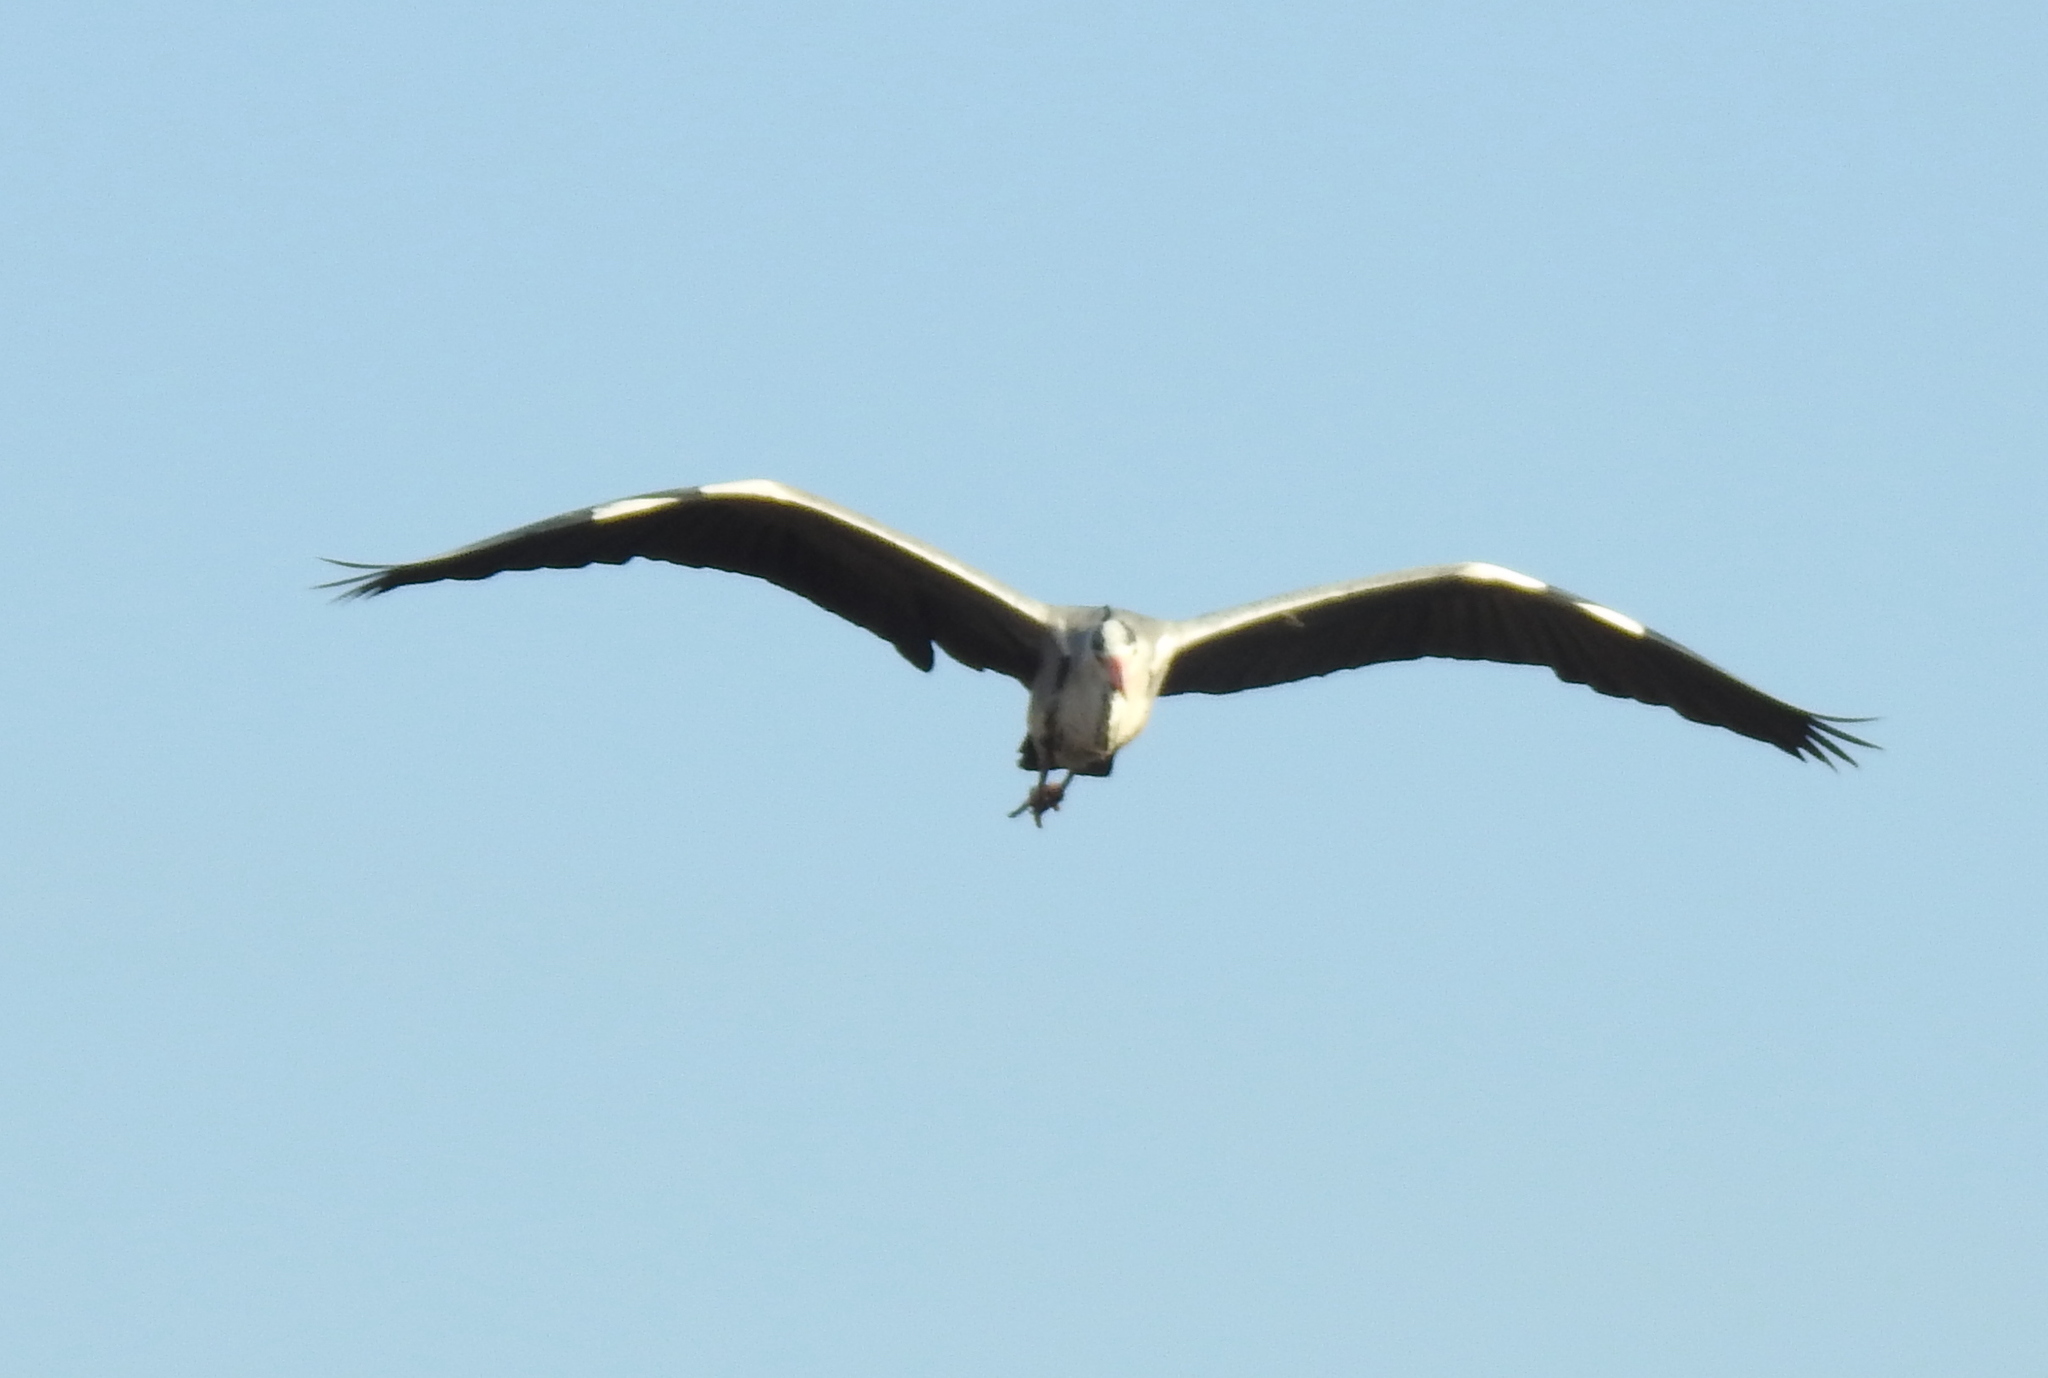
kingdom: Animalia
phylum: Chordata
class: Aves
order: Pelecaniformes
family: Ardeidae
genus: Ardea
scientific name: Ardea cinerea
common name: Grey heron
